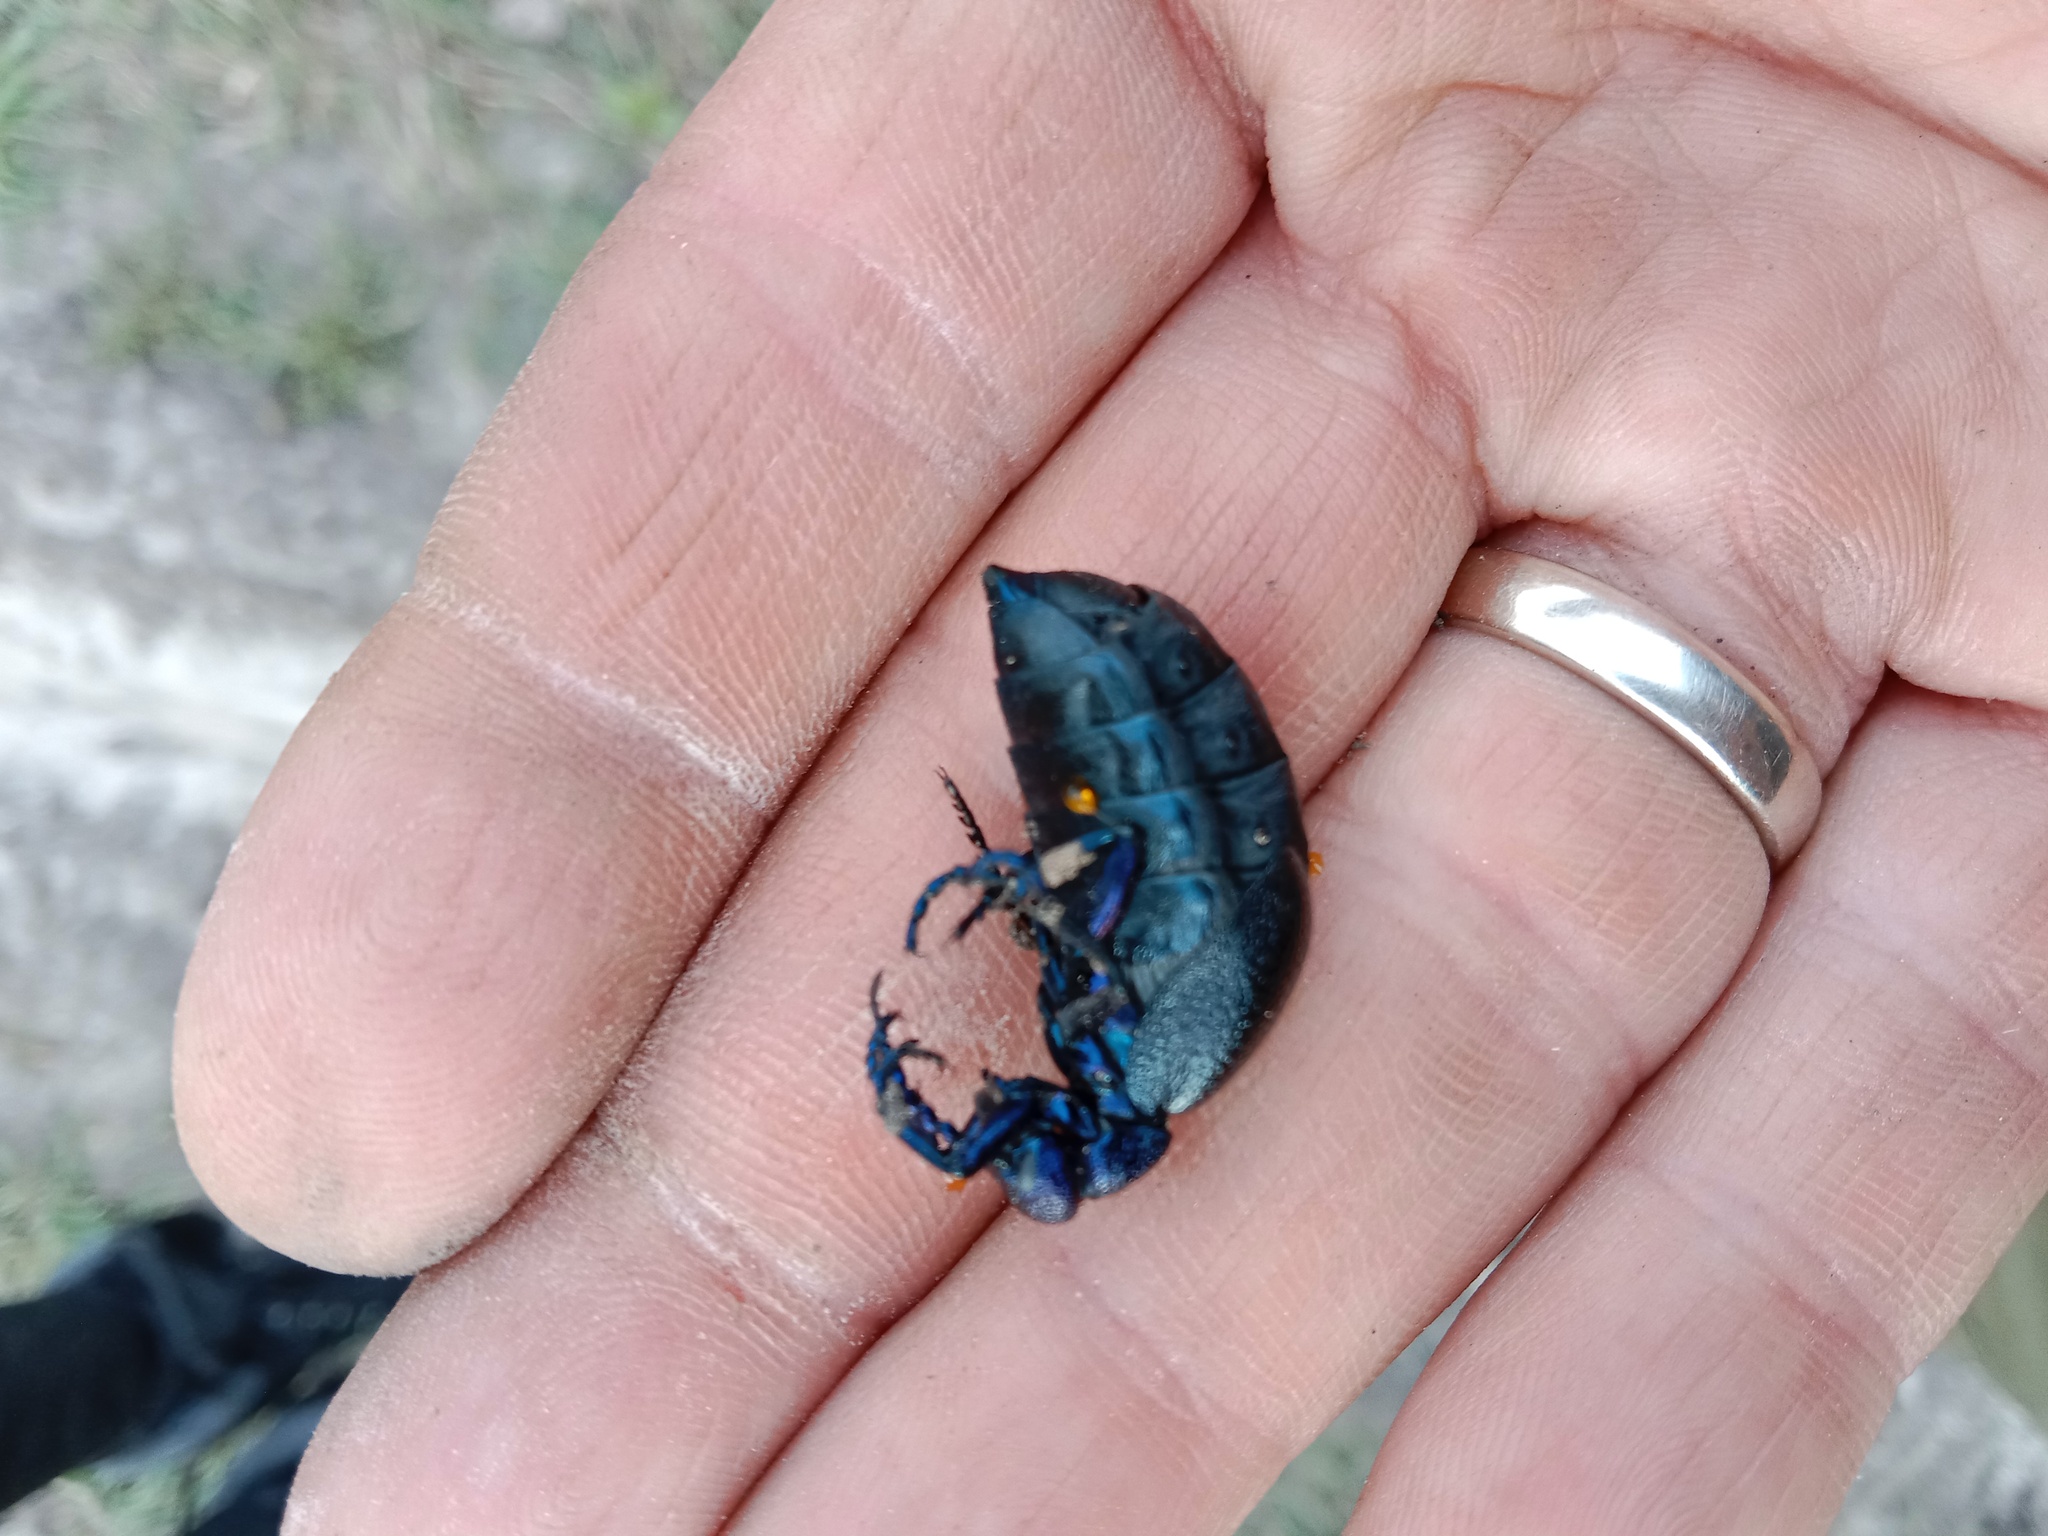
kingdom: Animalia
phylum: Arthropoda
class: Insecta
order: Coleoptera
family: Meloidae
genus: Meloe
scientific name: Meloe proscarabaeus
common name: Black oil-beetle
